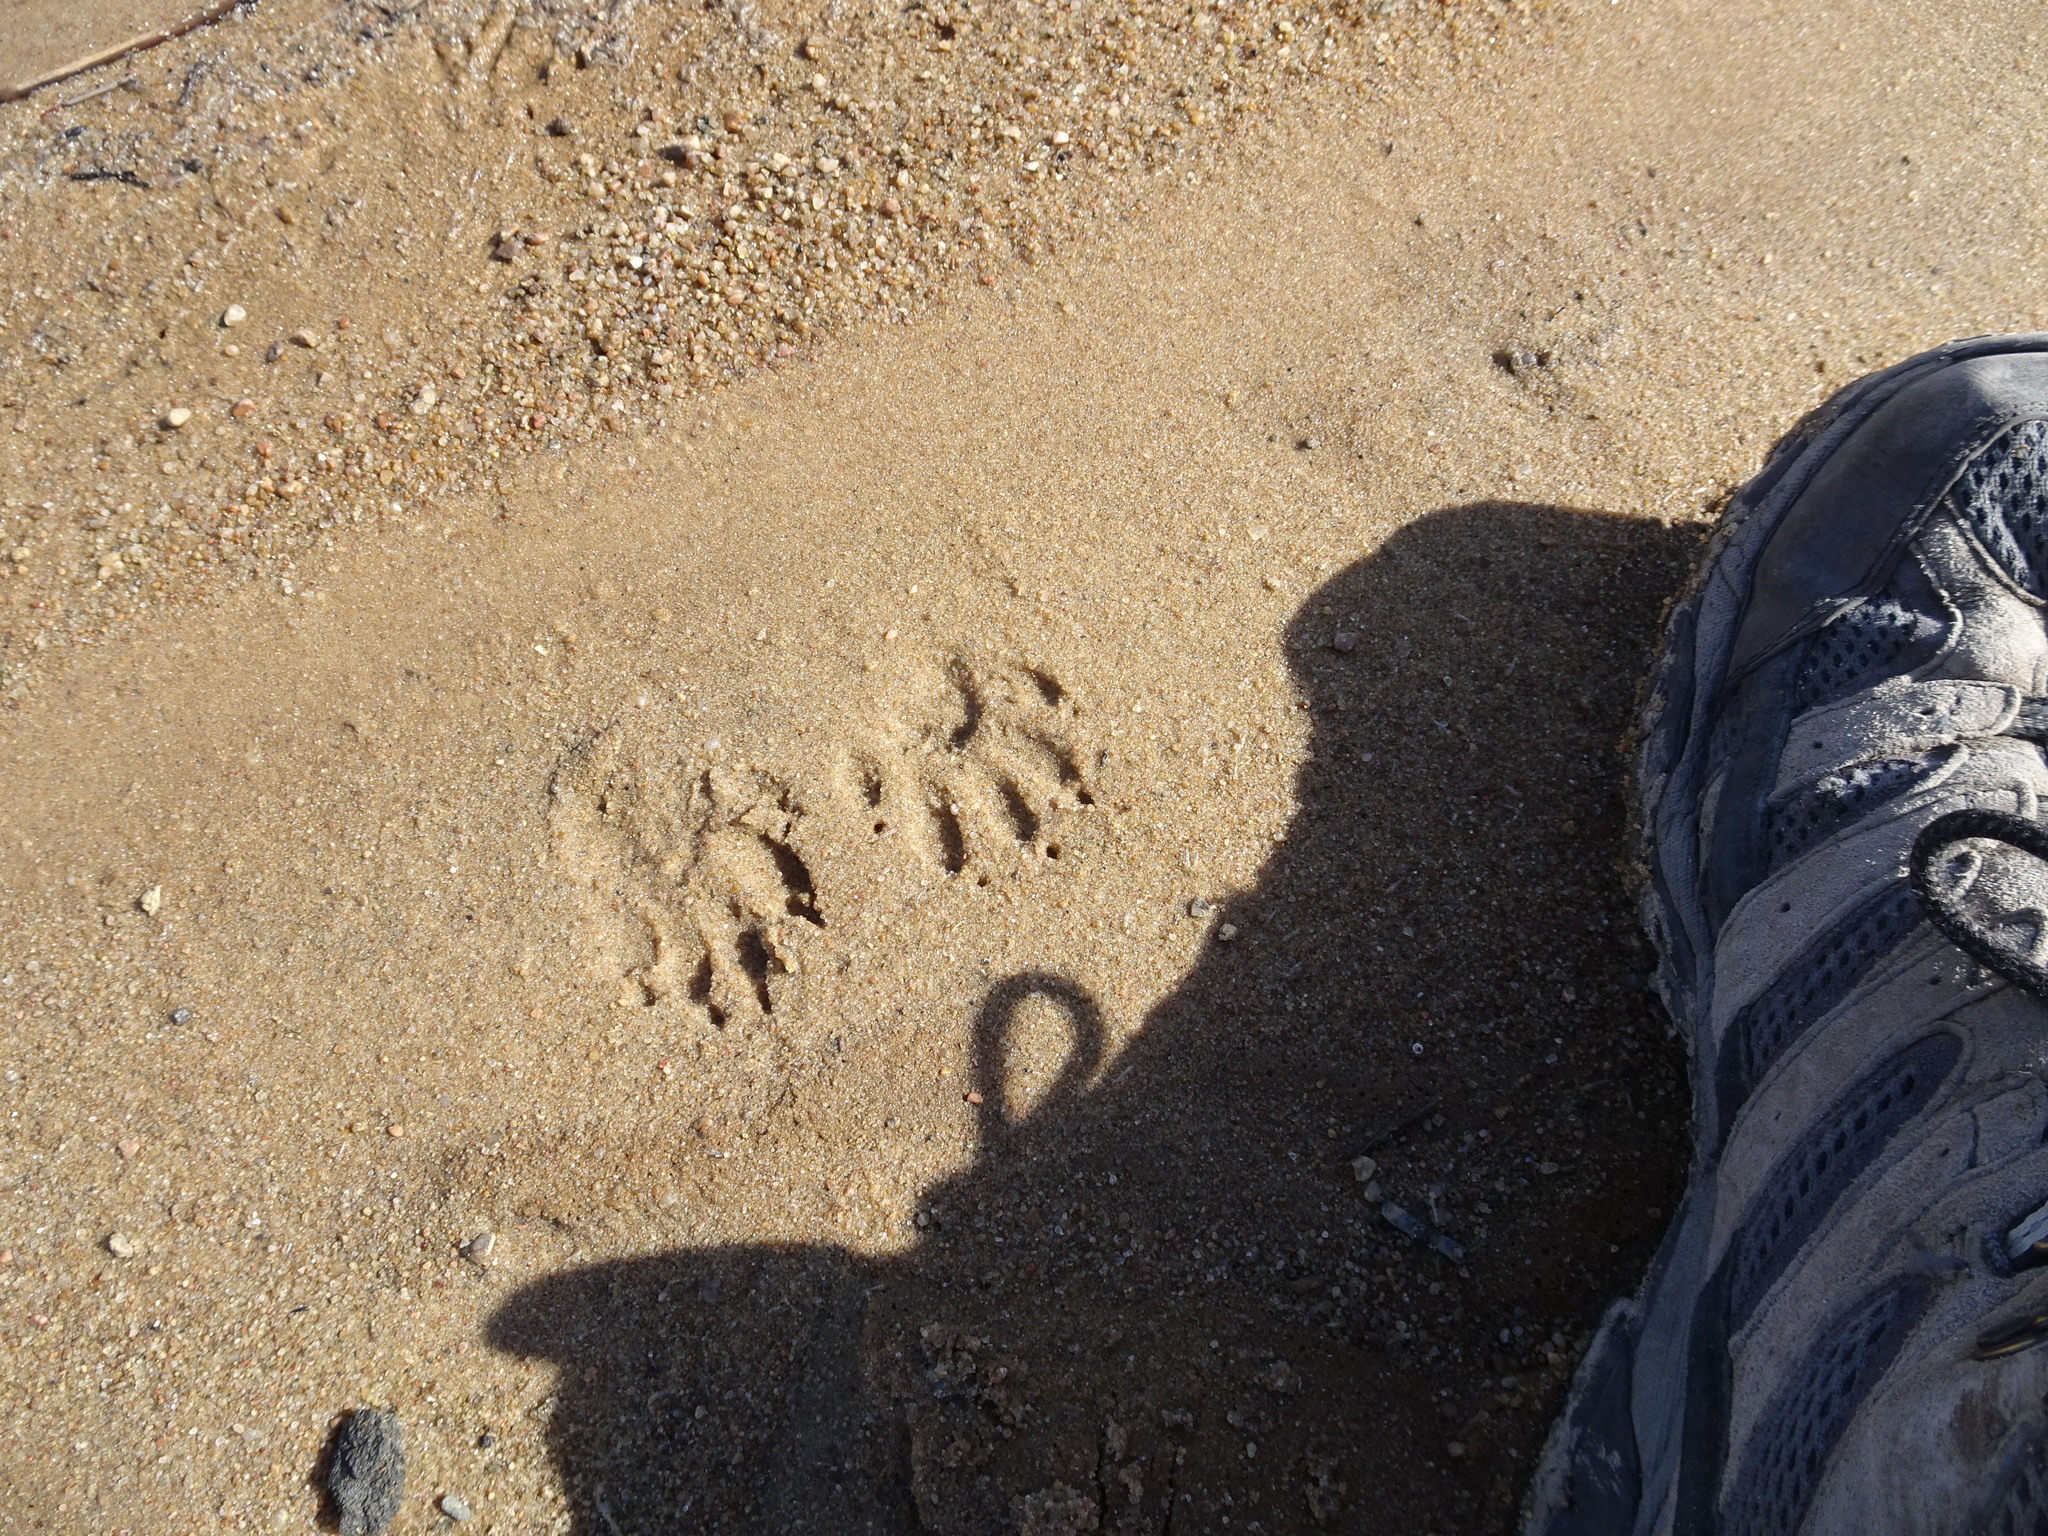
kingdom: Animalia
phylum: Chordata
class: Mammalia
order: Carnivora
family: Procyonidae
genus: Procyon
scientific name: Procyon lotor
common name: Raccoon
